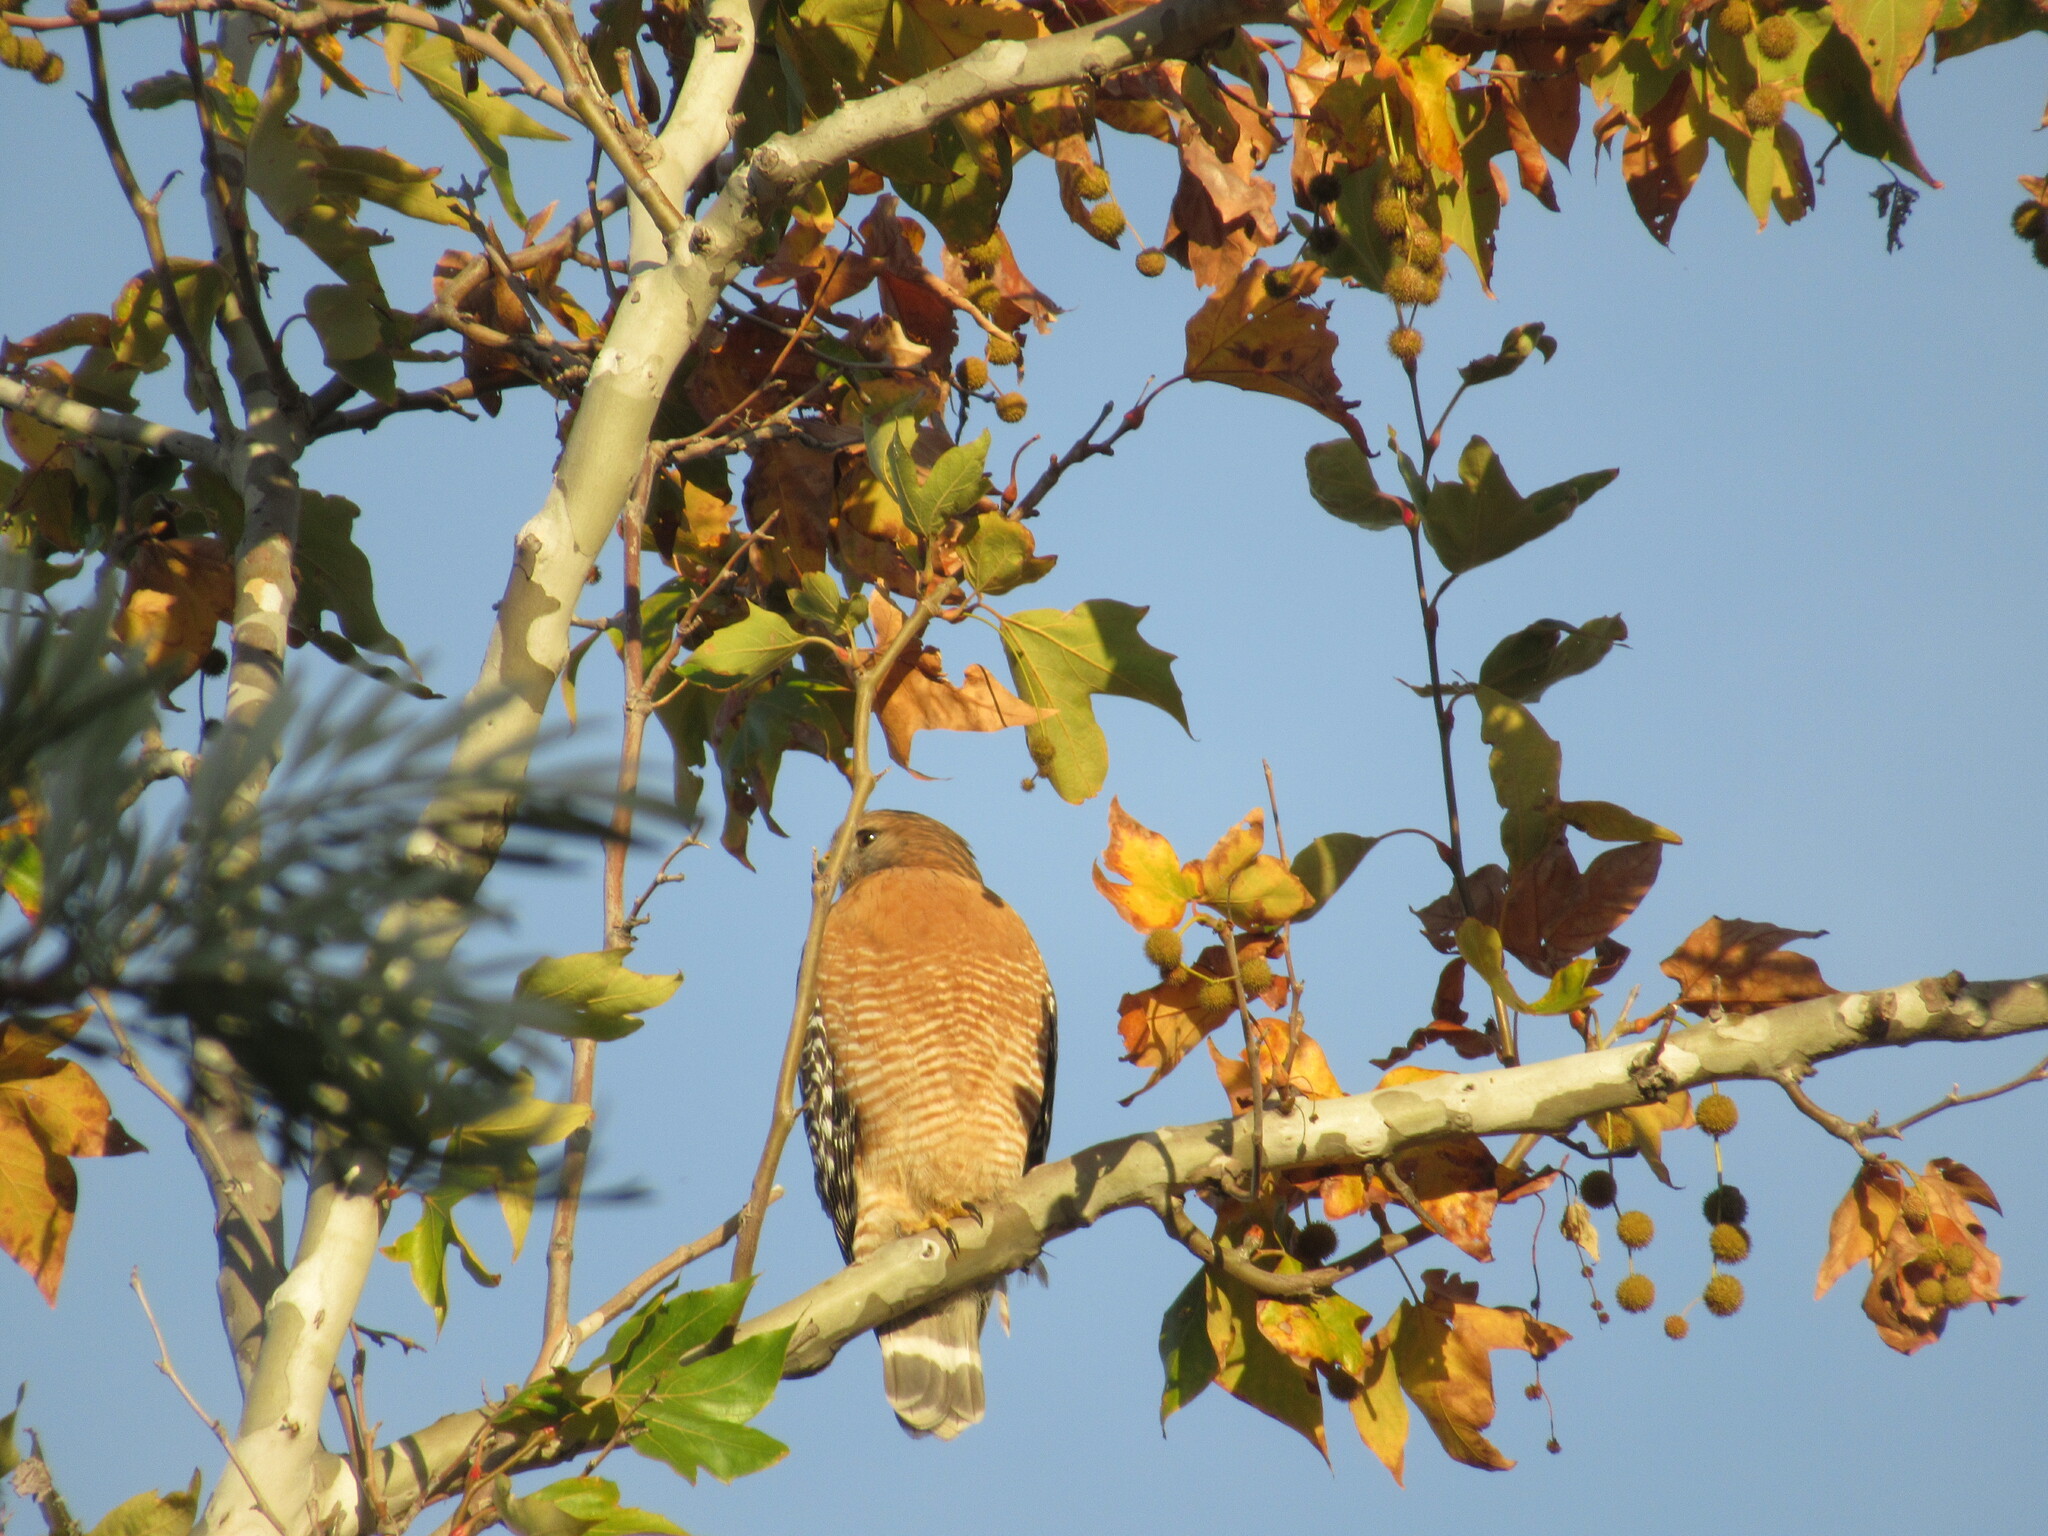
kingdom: Animalia
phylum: Chordata
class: Aves
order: Accipitriformes
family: Accipitridae
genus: Buteo
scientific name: Buteo lineatus
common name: Red-shouldered hawk
